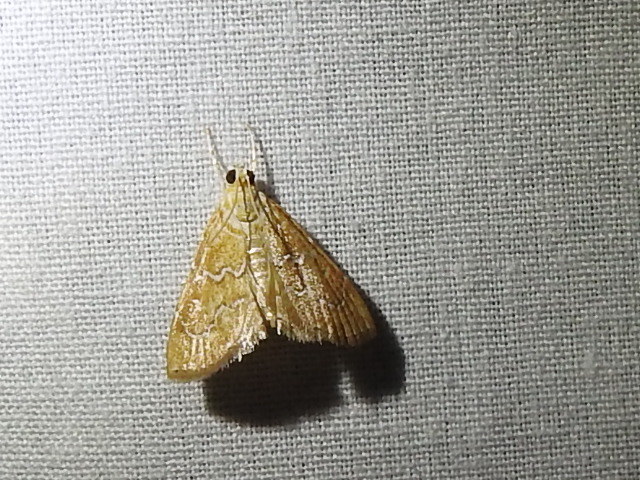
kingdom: Animalia
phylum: Arthropoda
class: Insecta
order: Lepidoptera
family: Crambidae
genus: Glaphyria
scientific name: Glaphyria sesquistrialis
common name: White-roped glaphyria
